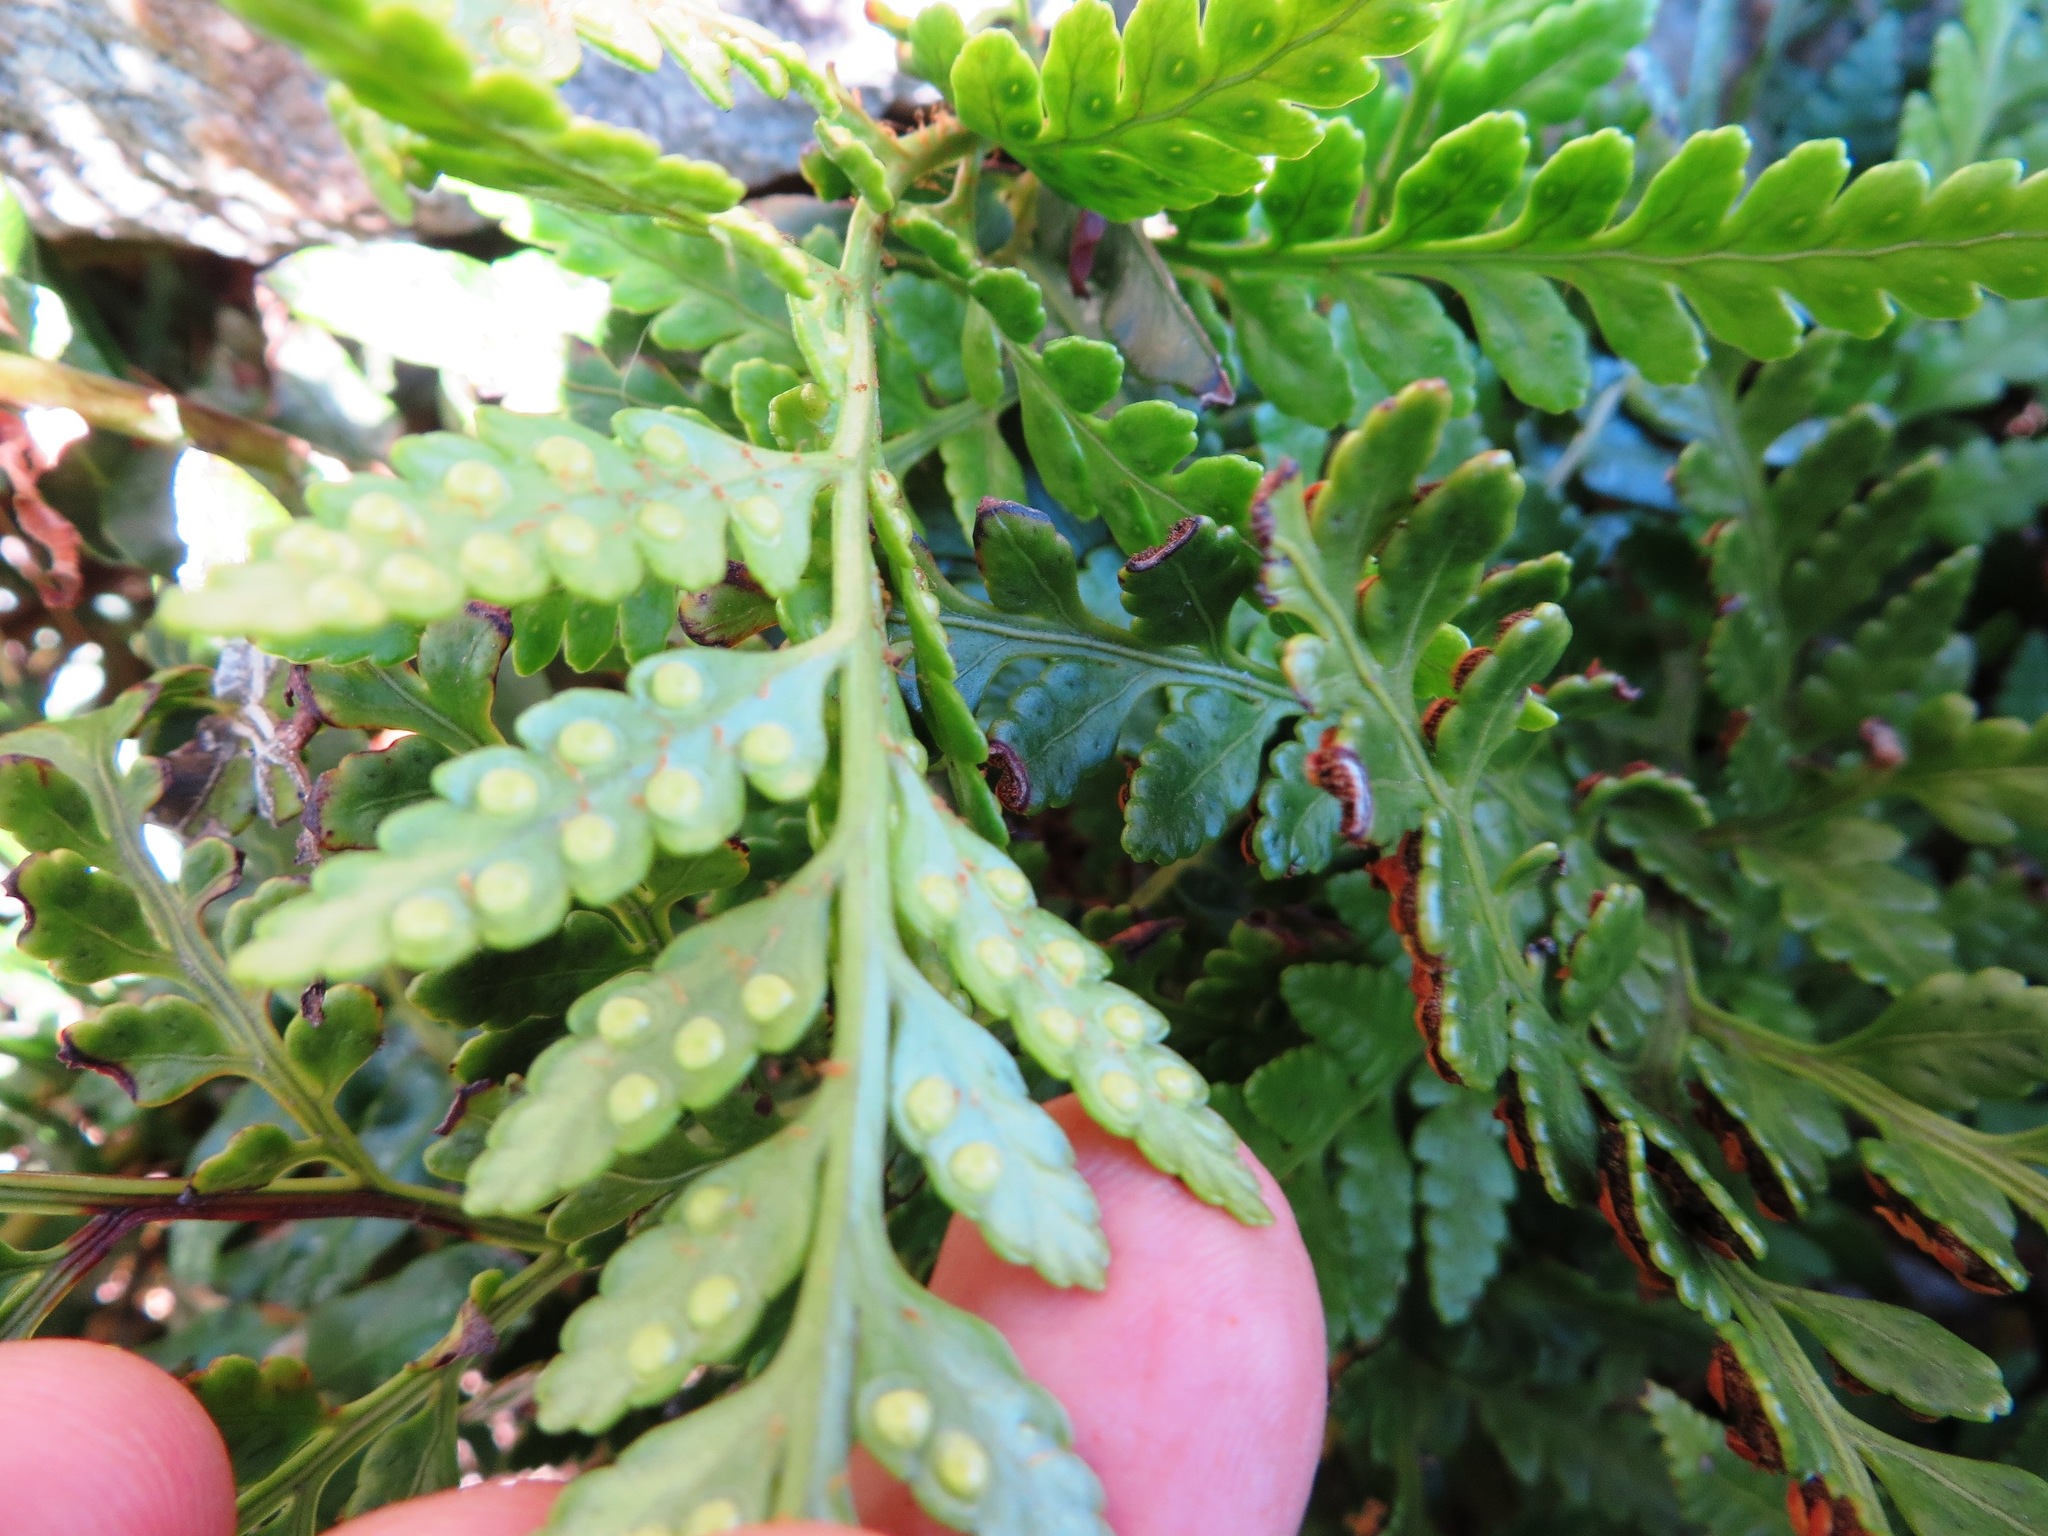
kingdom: Plantae
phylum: Tracheophyta
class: Polypodiopsida
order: Polypodiales
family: Dryopteridaceae
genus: Rumohra
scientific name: Rumohra adiantiformis
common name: Leather fern
